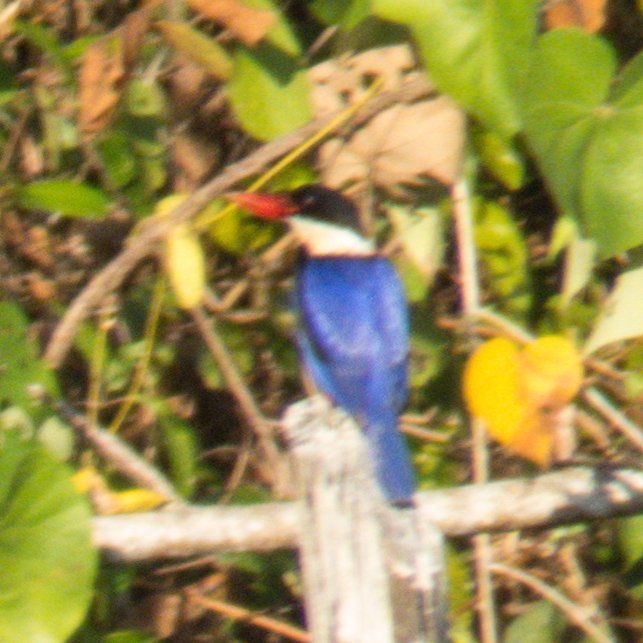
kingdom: Animalia
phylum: Chordata
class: Aves
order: Coraciiformes
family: Alcedinidae
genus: Halcyon
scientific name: Halcyon pileata
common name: Black-capped kingfisher
